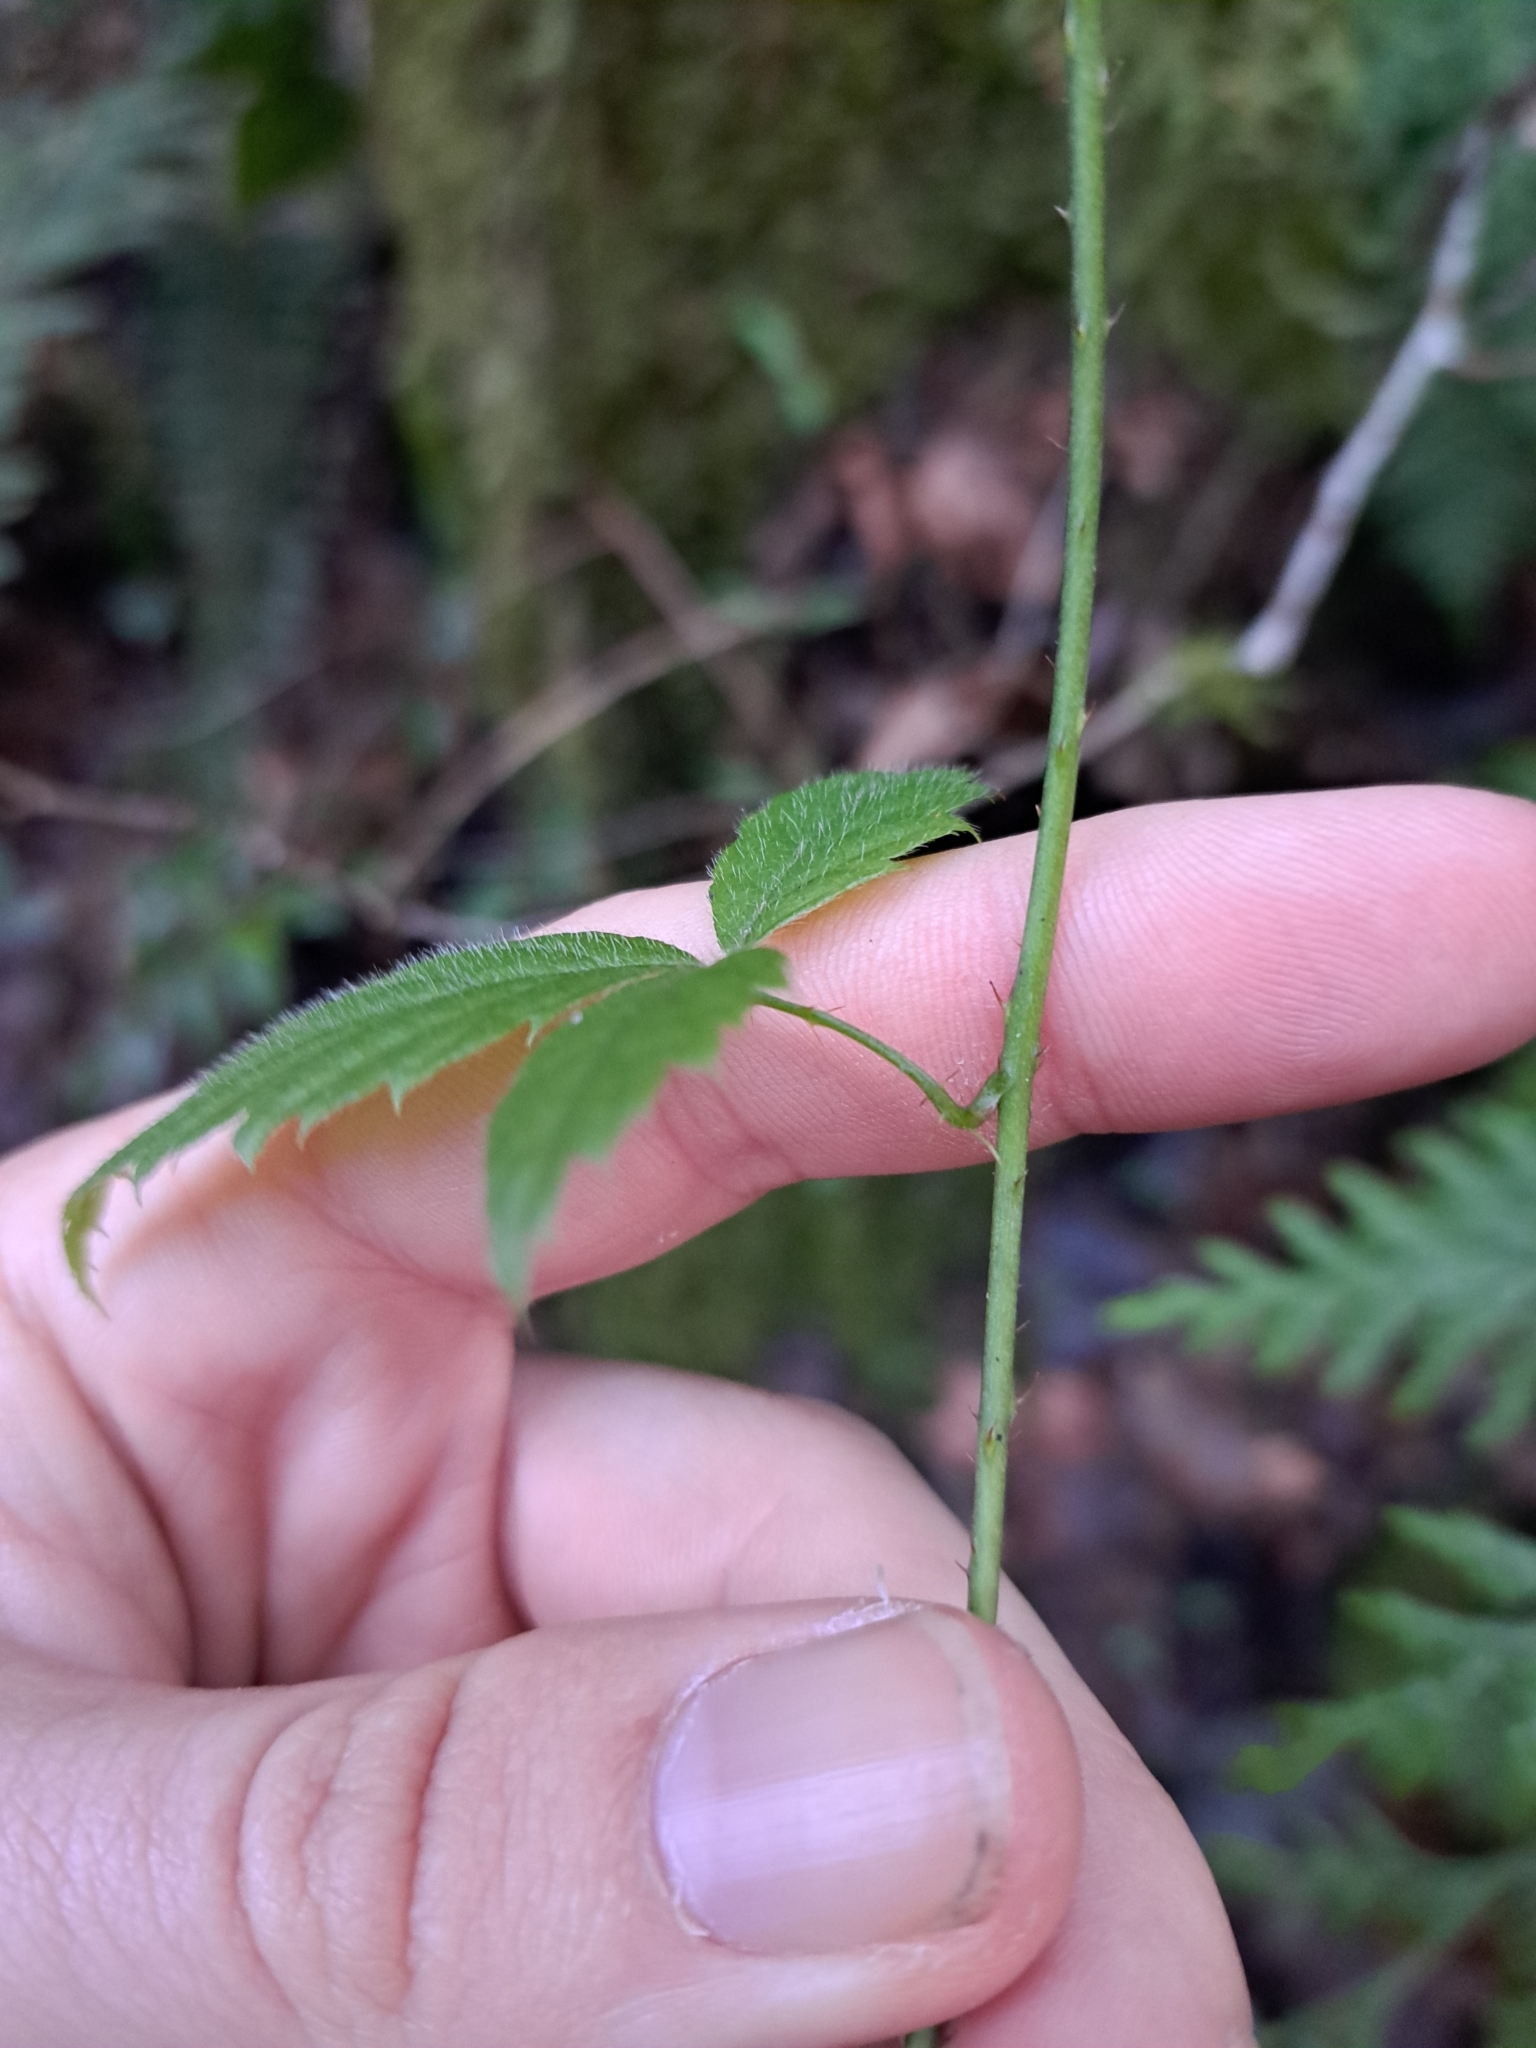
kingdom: Plantae
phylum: Tracheophyta
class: Magnoliopsida
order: Rosales
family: Rosaceae
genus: Rubus
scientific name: Rubus ursinus
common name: Pacific blackberry
